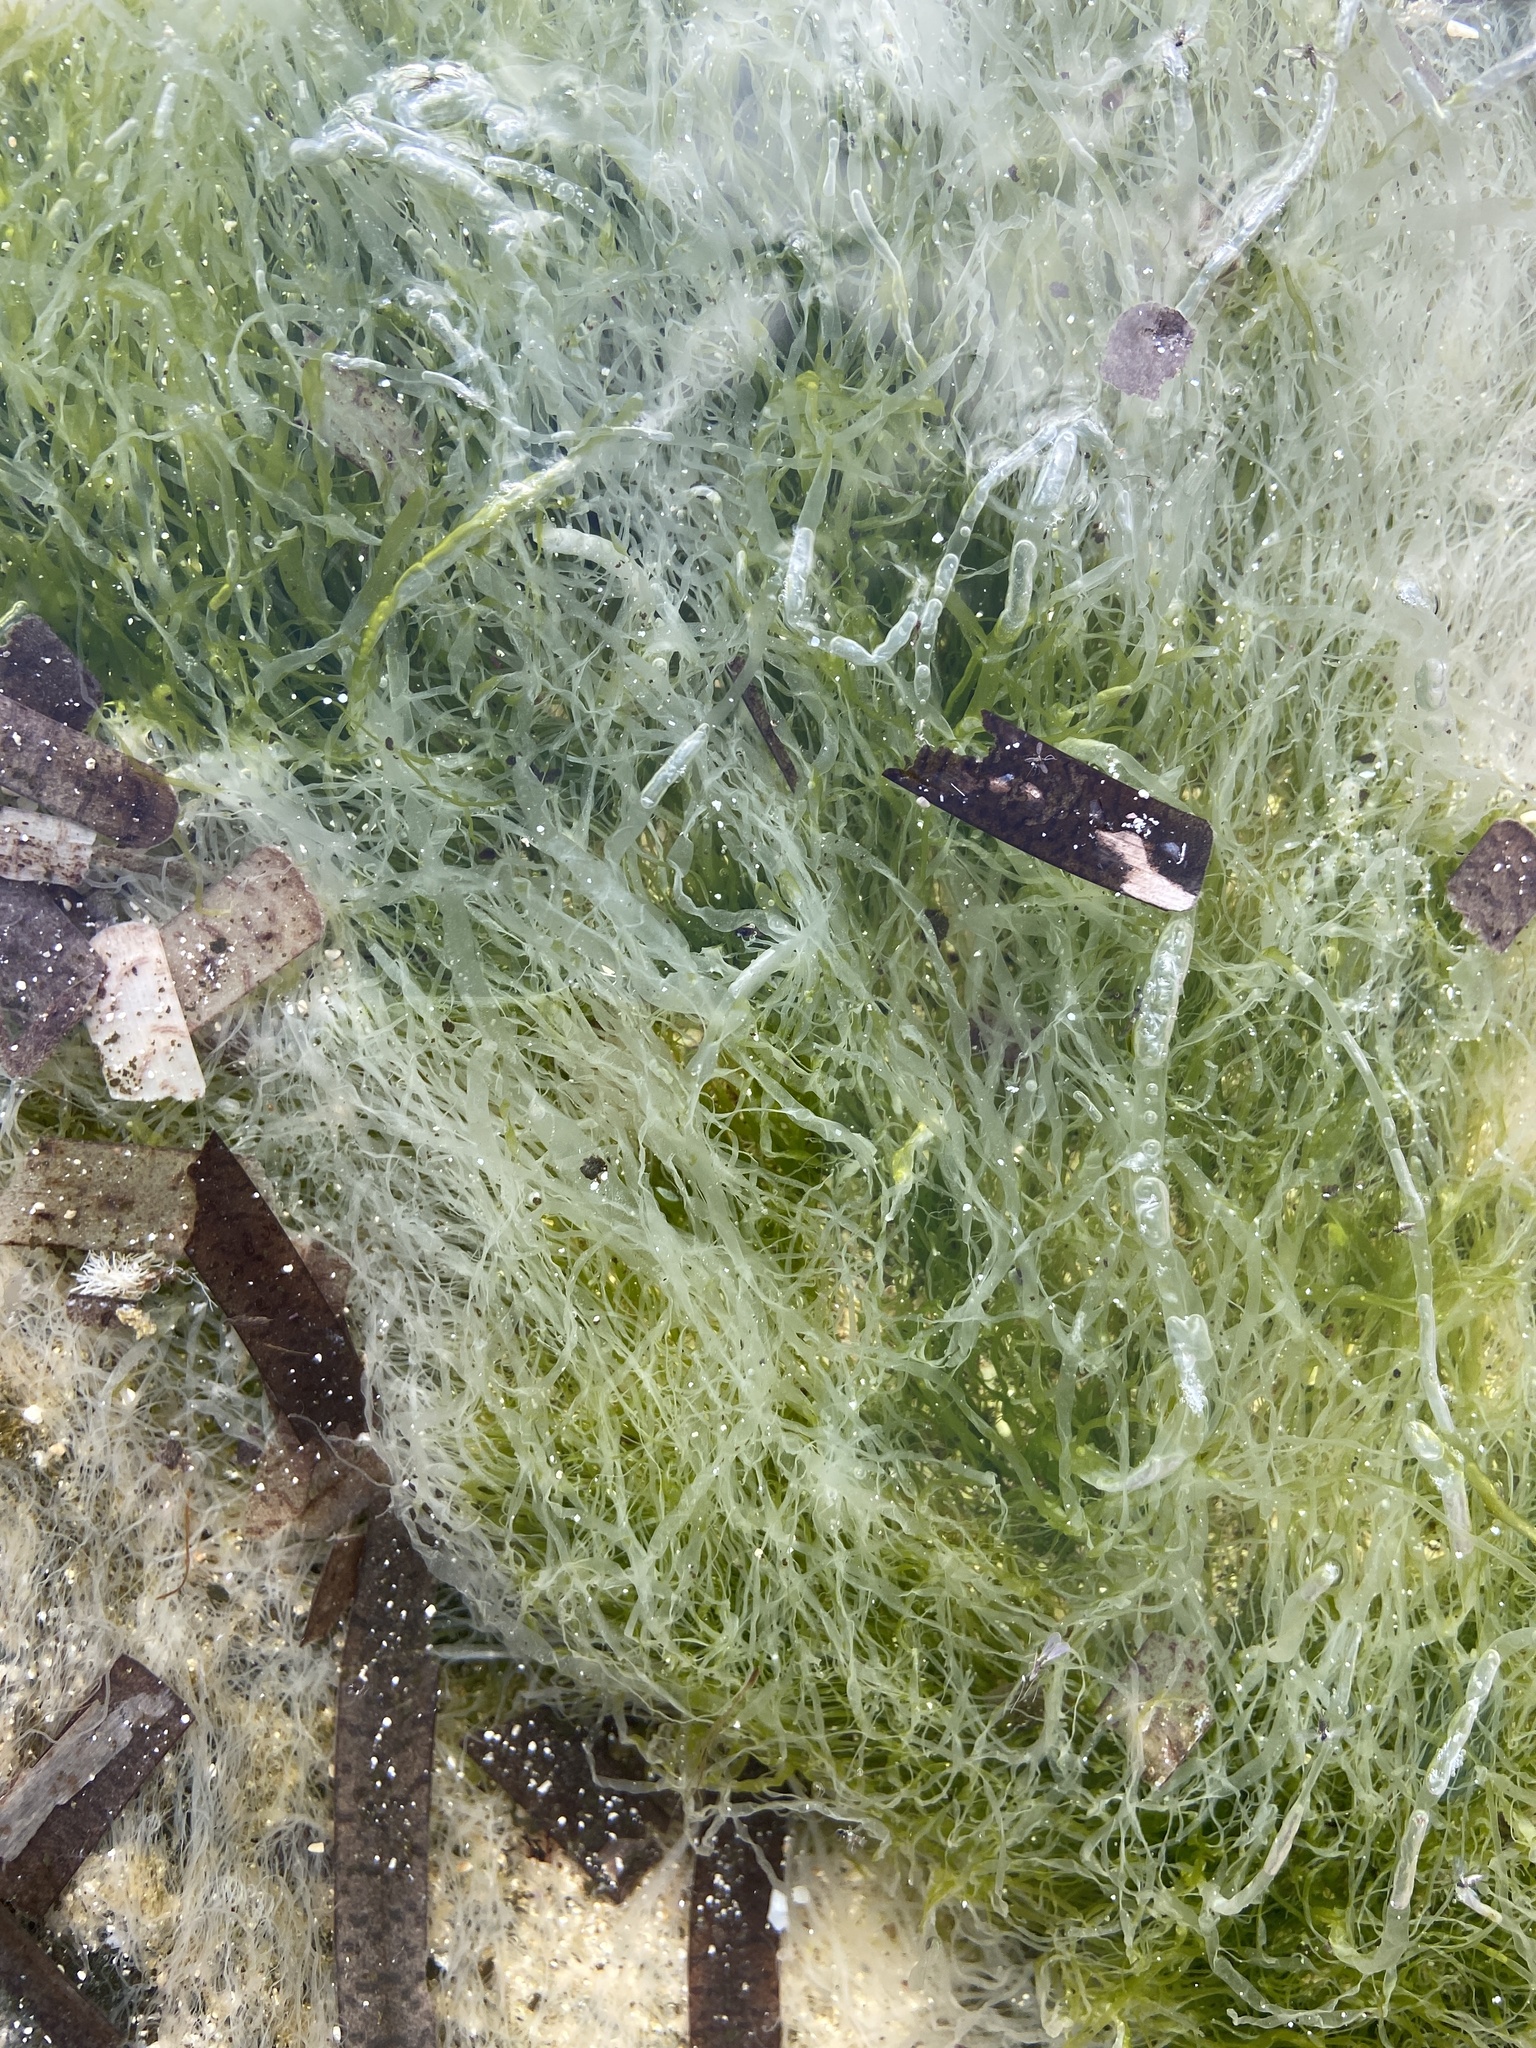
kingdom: Plantae
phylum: Chlorophyta
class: Ulvophyceae
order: Ulvales
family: Ulvaceae
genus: Ulva
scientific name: Ulva intestinalis
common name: Gut weed
